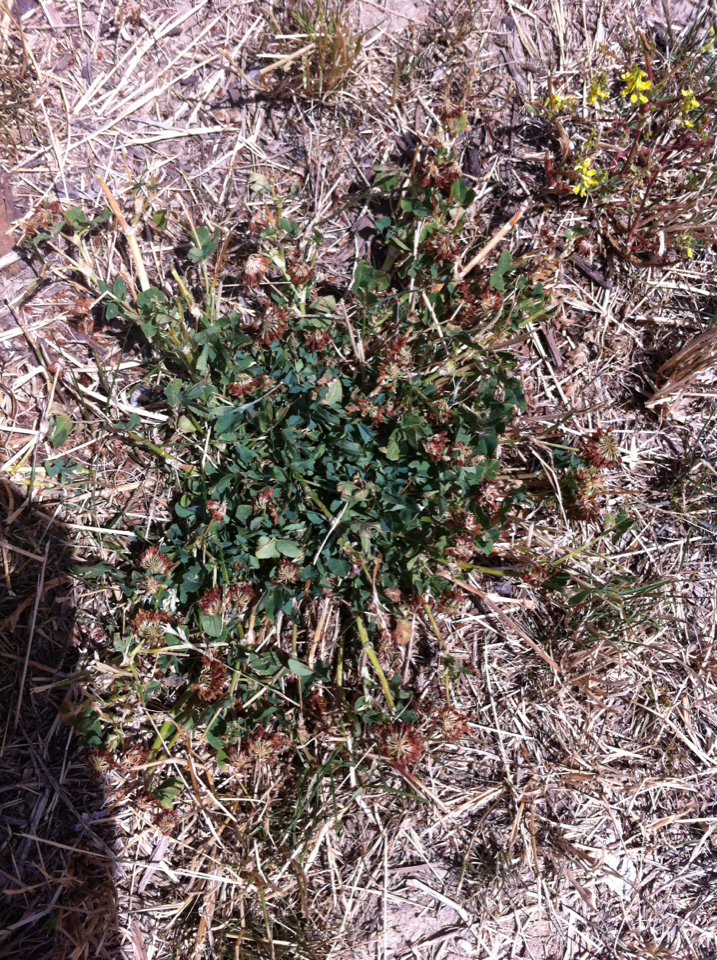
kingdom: Plantae
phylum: Tracheophyta
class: Magnoliopsida
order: Fabales
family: Fabaceae
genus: Trifolium
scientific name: Trifolium repens
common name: White clover
